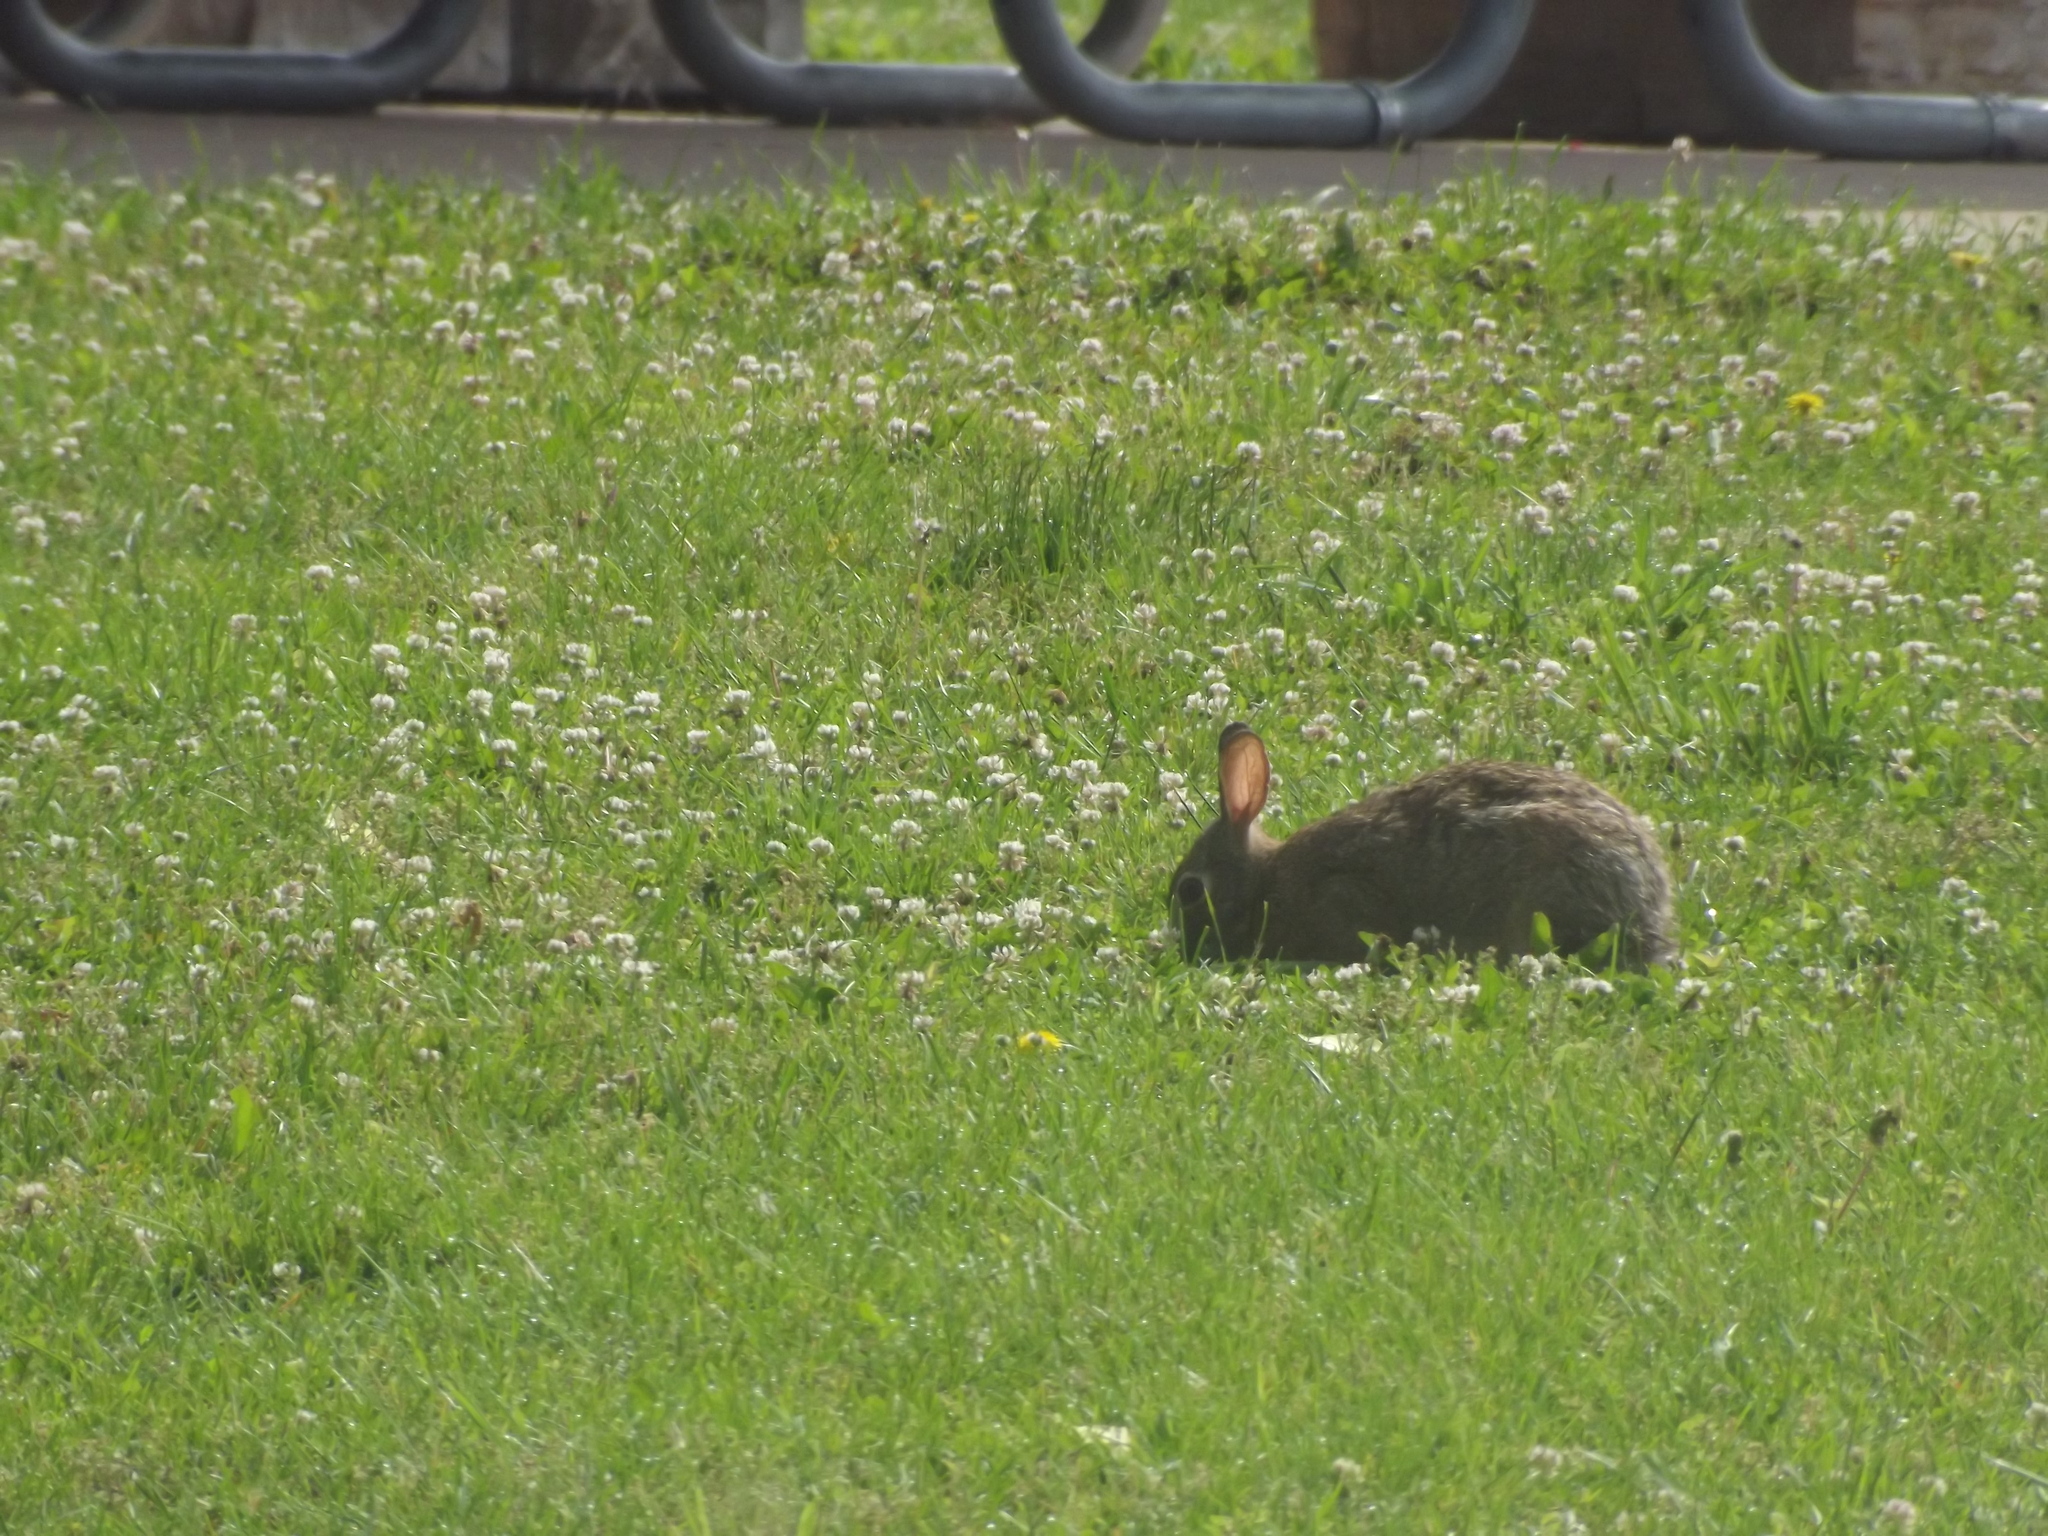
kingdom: Animalia
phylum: Chordata
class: Mammalia
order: Lagomorpha
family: Leporidae
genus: Sylvilagus
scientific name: Sylvilagus floridanus
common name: Eastern cottontail
